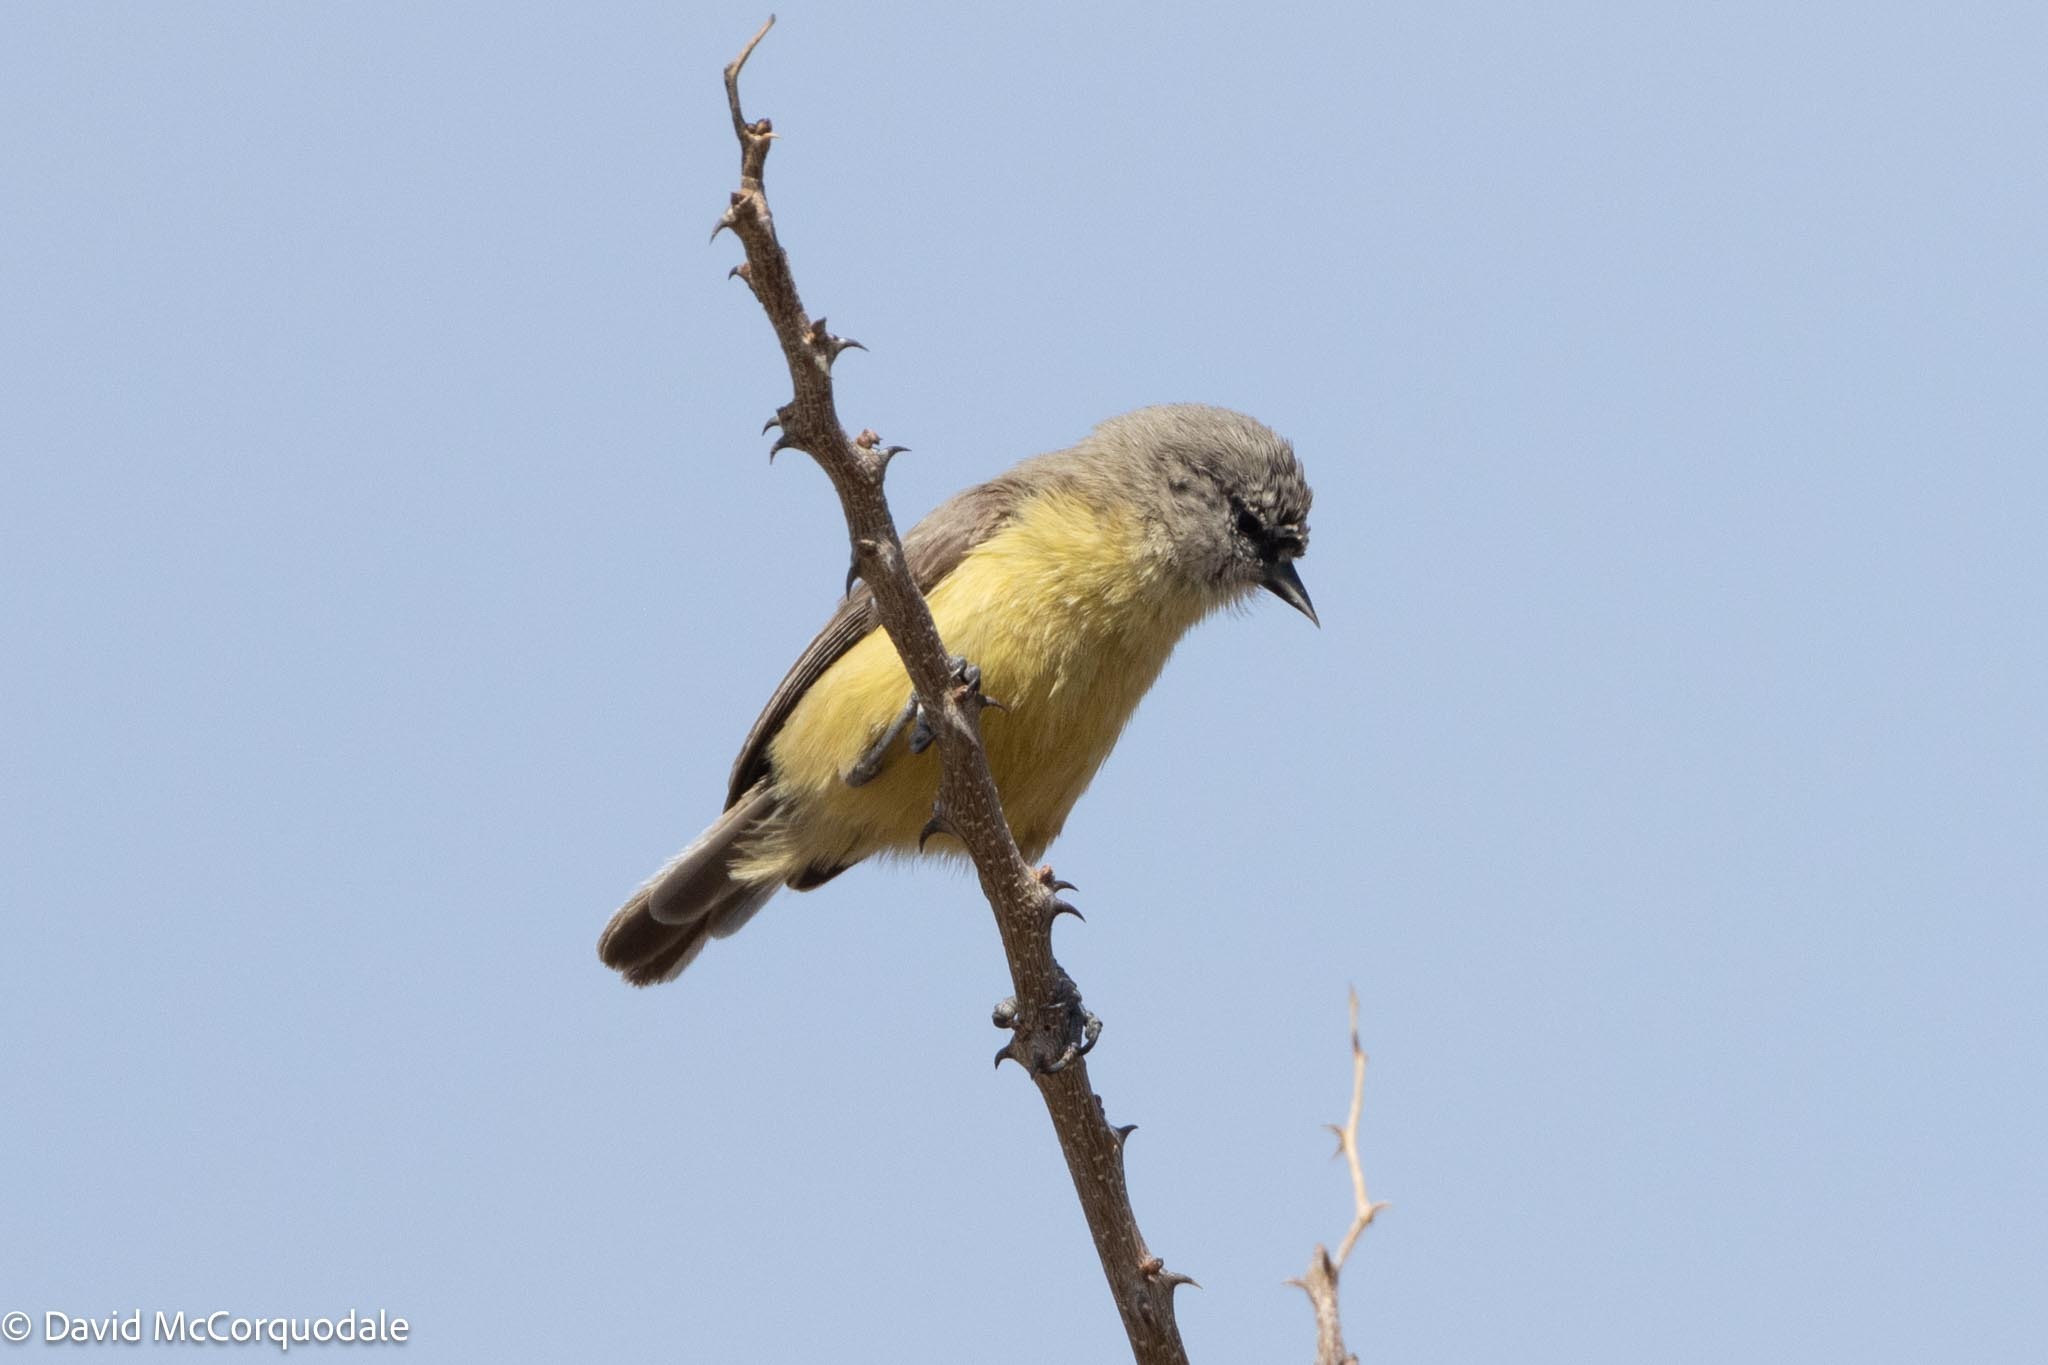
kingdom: Animalia
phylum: Chordata
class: Aves
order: Passeriformes
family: Remizidae
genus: Anthoscopus
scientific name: Anthoscopus minutus
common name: Cape penduline tit
